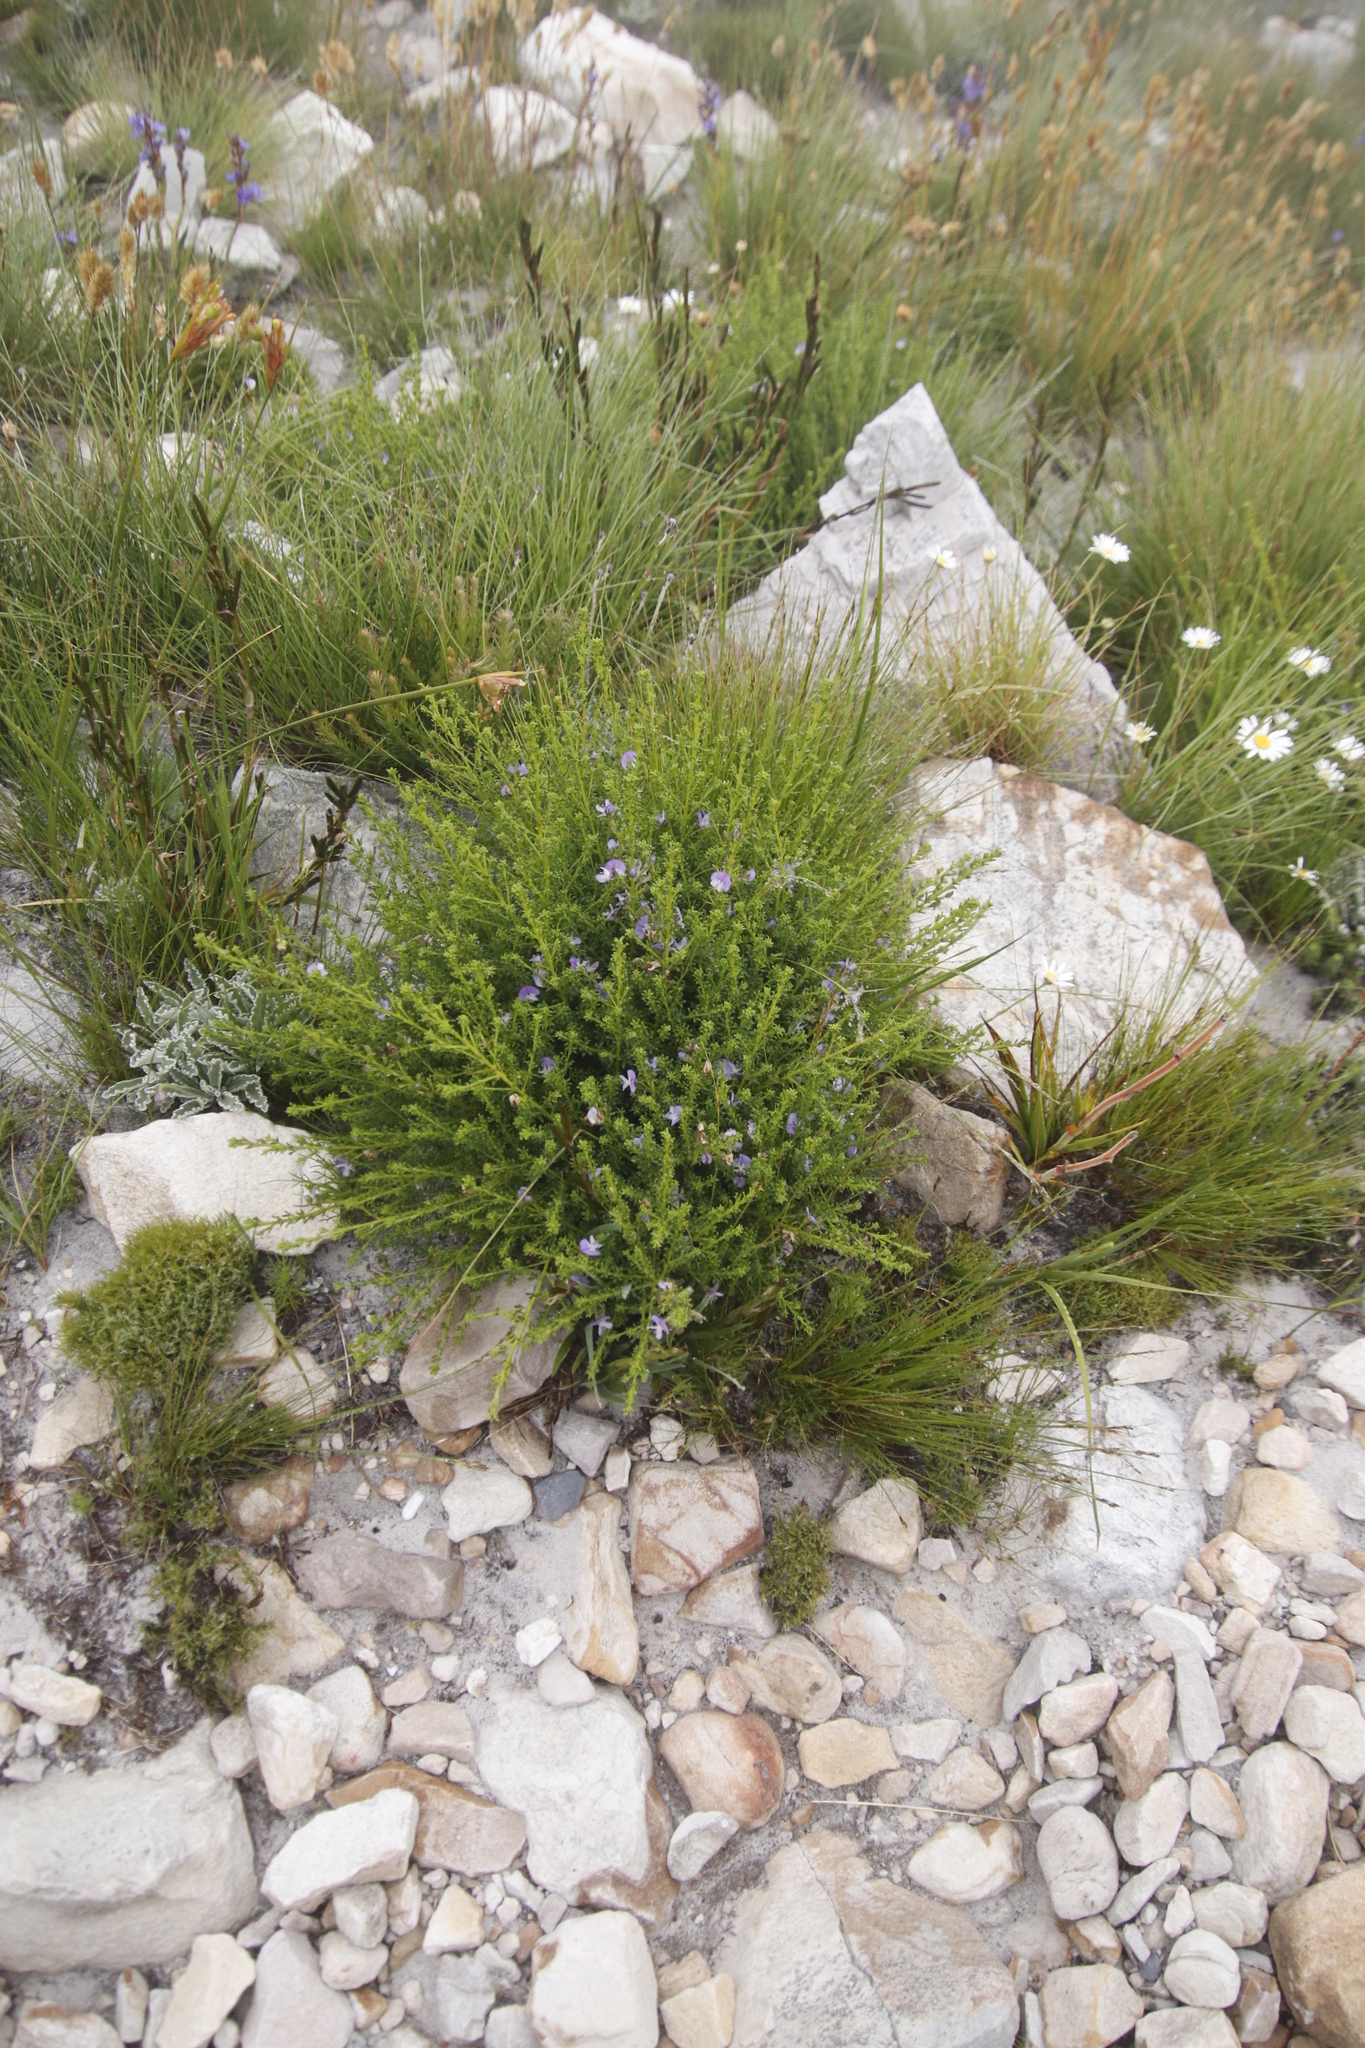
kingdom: Plantae
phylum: Tracheophyta
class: Magnoliopsida
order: Fabales
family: Fabaceae
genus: Psoralea
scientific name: Psoralea aculeata
